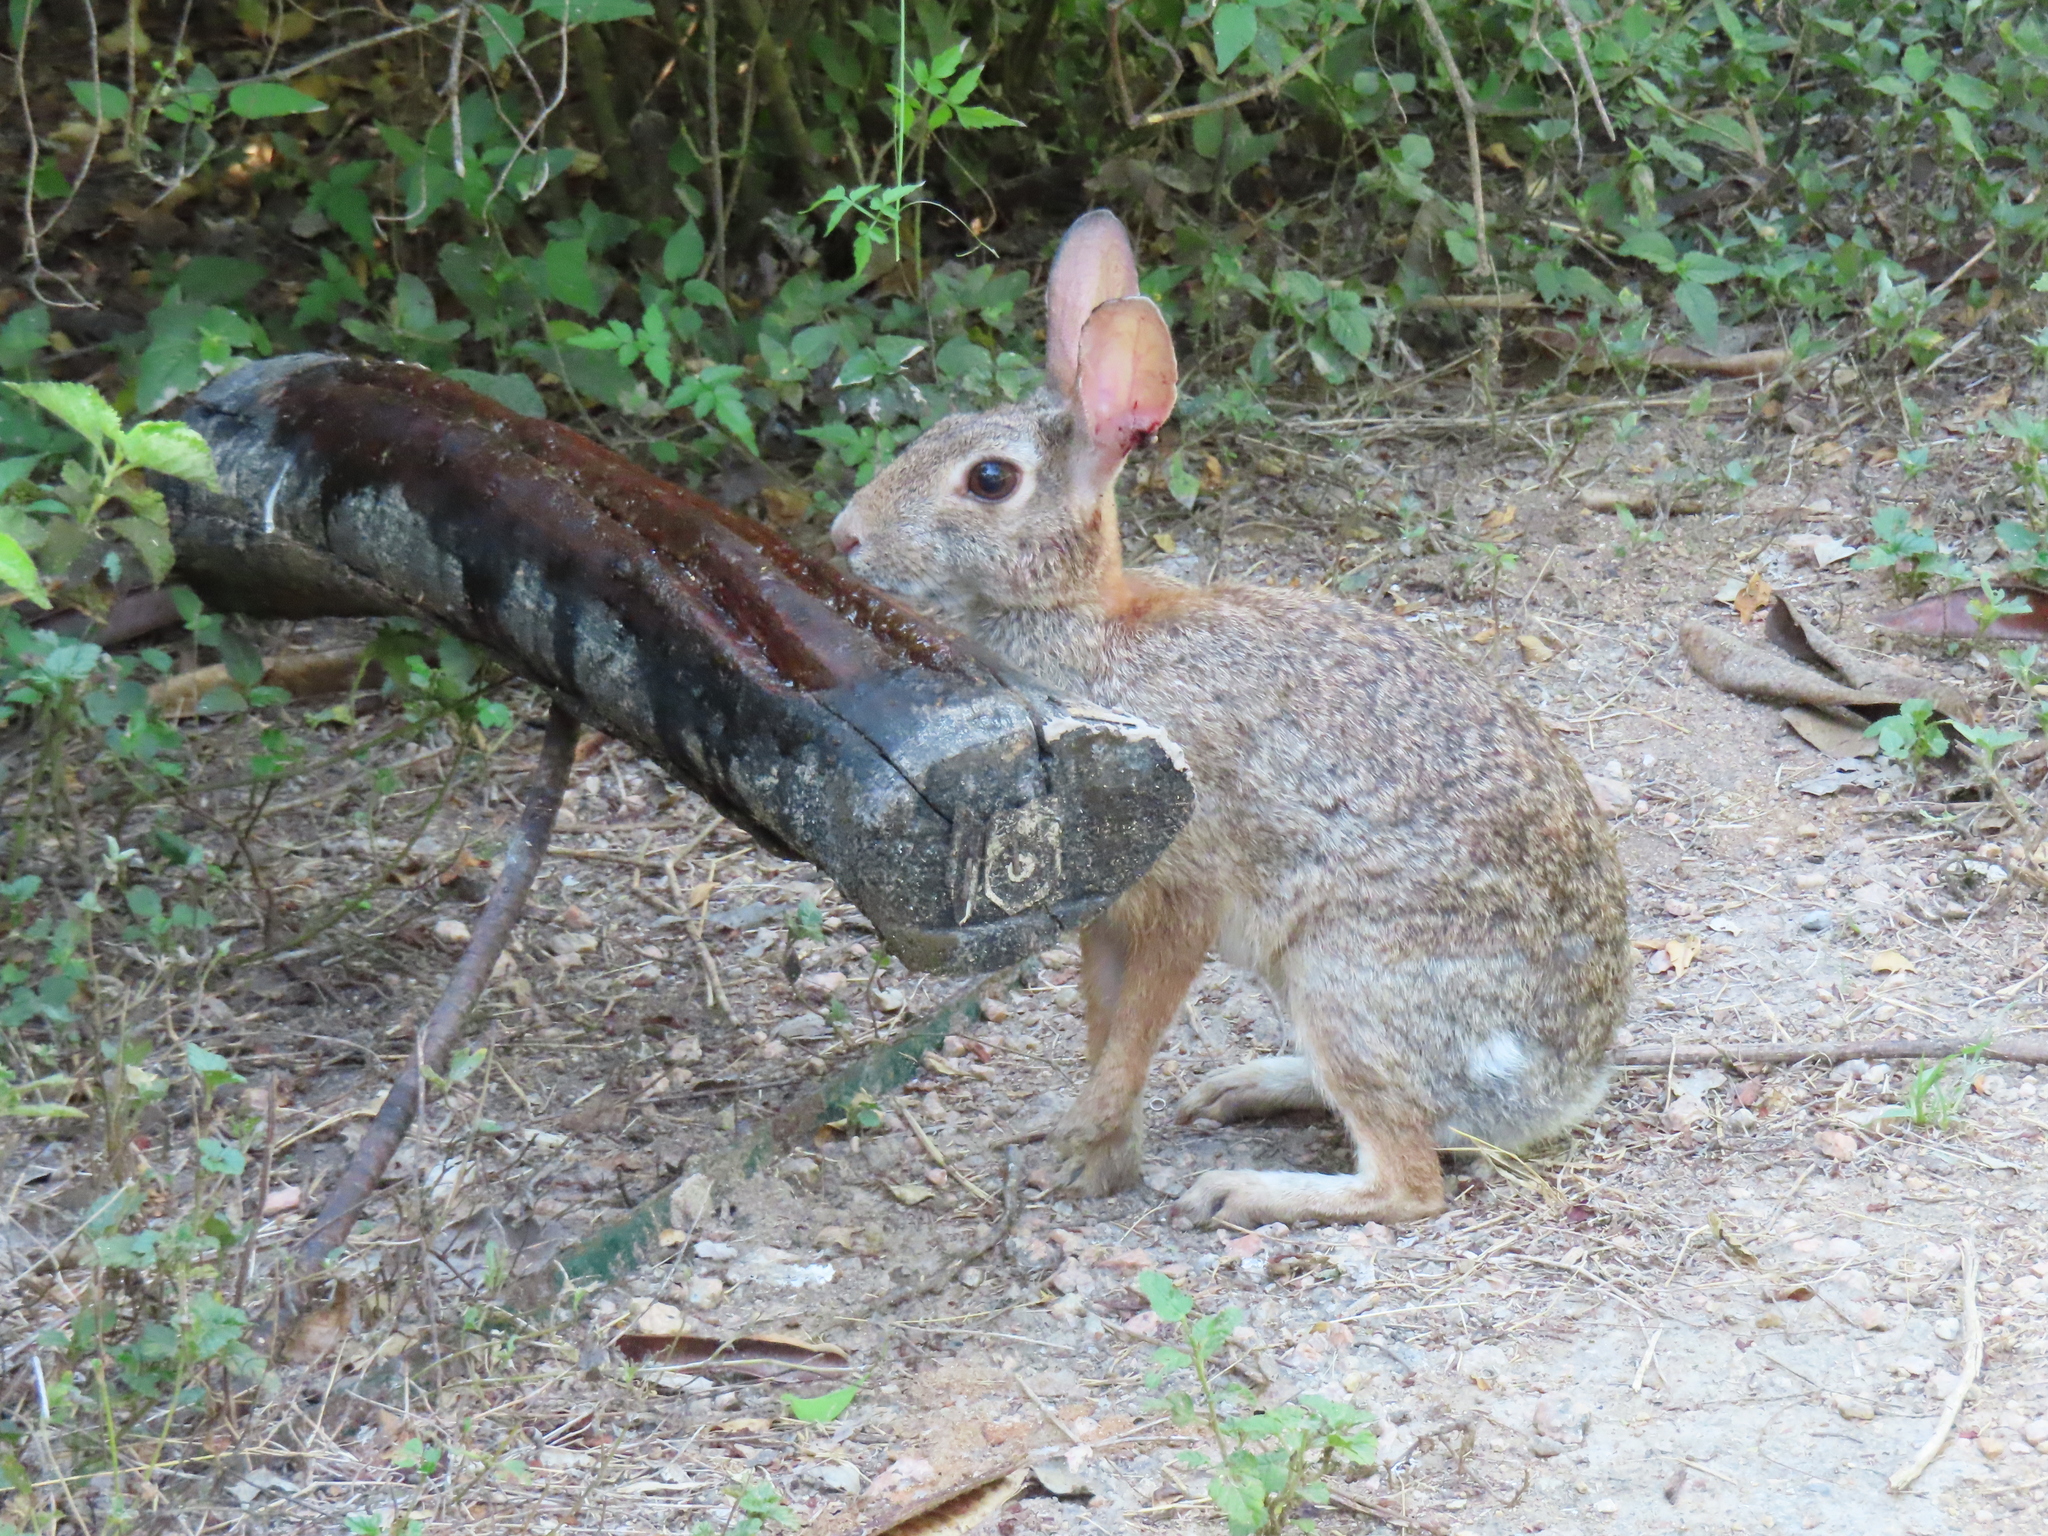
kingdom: Animalia
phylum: Chordata
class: Mammalia
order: Lagomorpha
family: Leporidae
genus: Sylvilagus
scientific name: Sylvilagus floridanus
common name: Eastern cottontail
